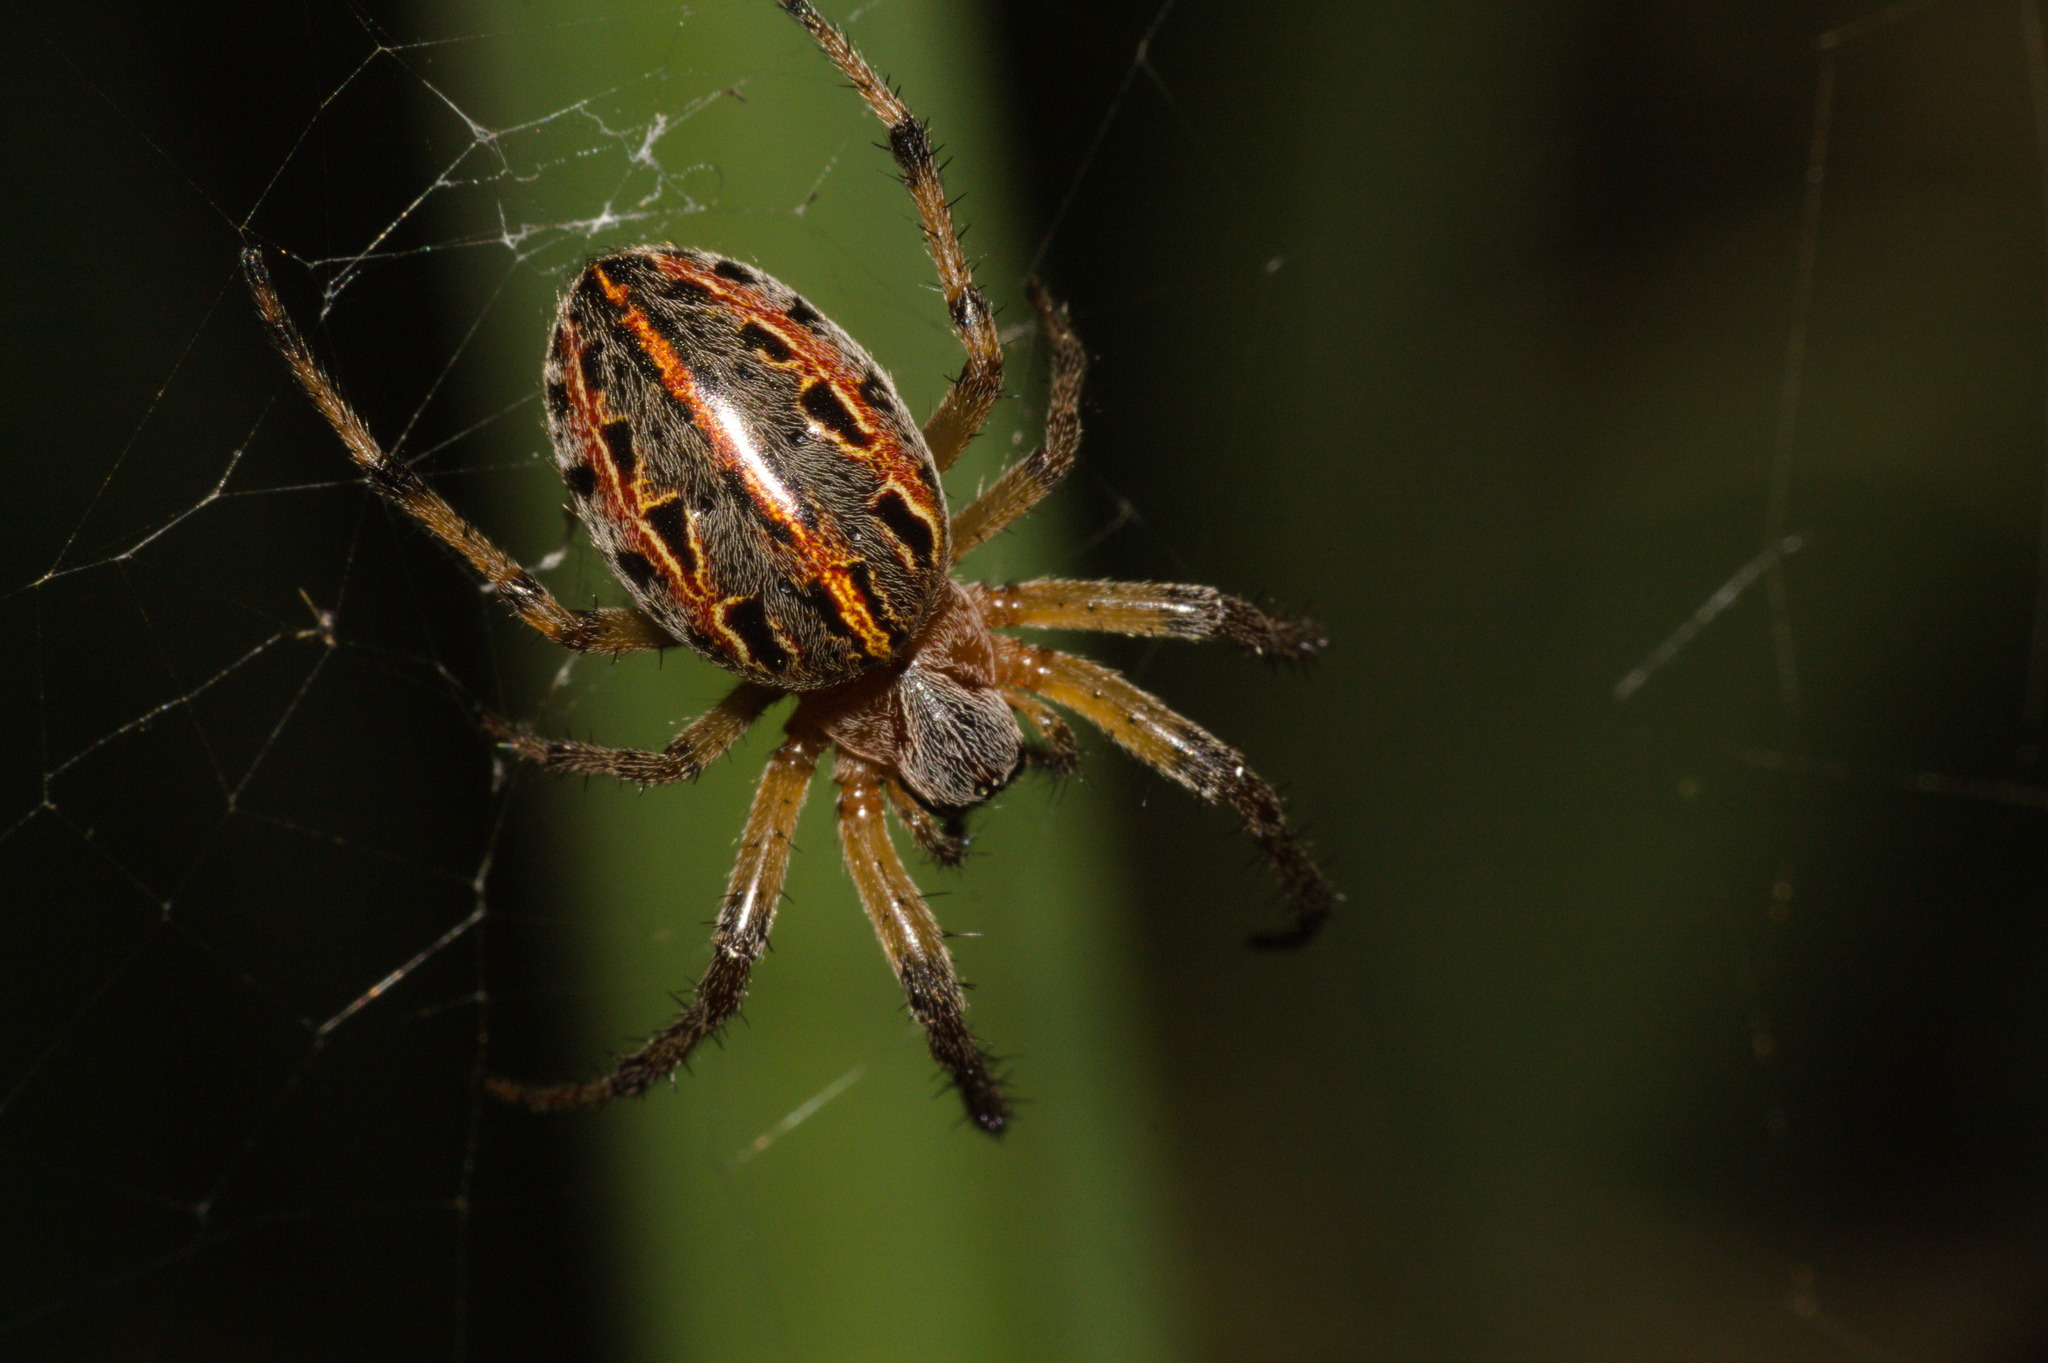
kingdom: Animalia
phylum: Arthropoda
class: Arachnida
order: Araneae
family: Araneidae
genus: Alpaida
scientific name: Alpaida veniliae
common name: Orb weavers
